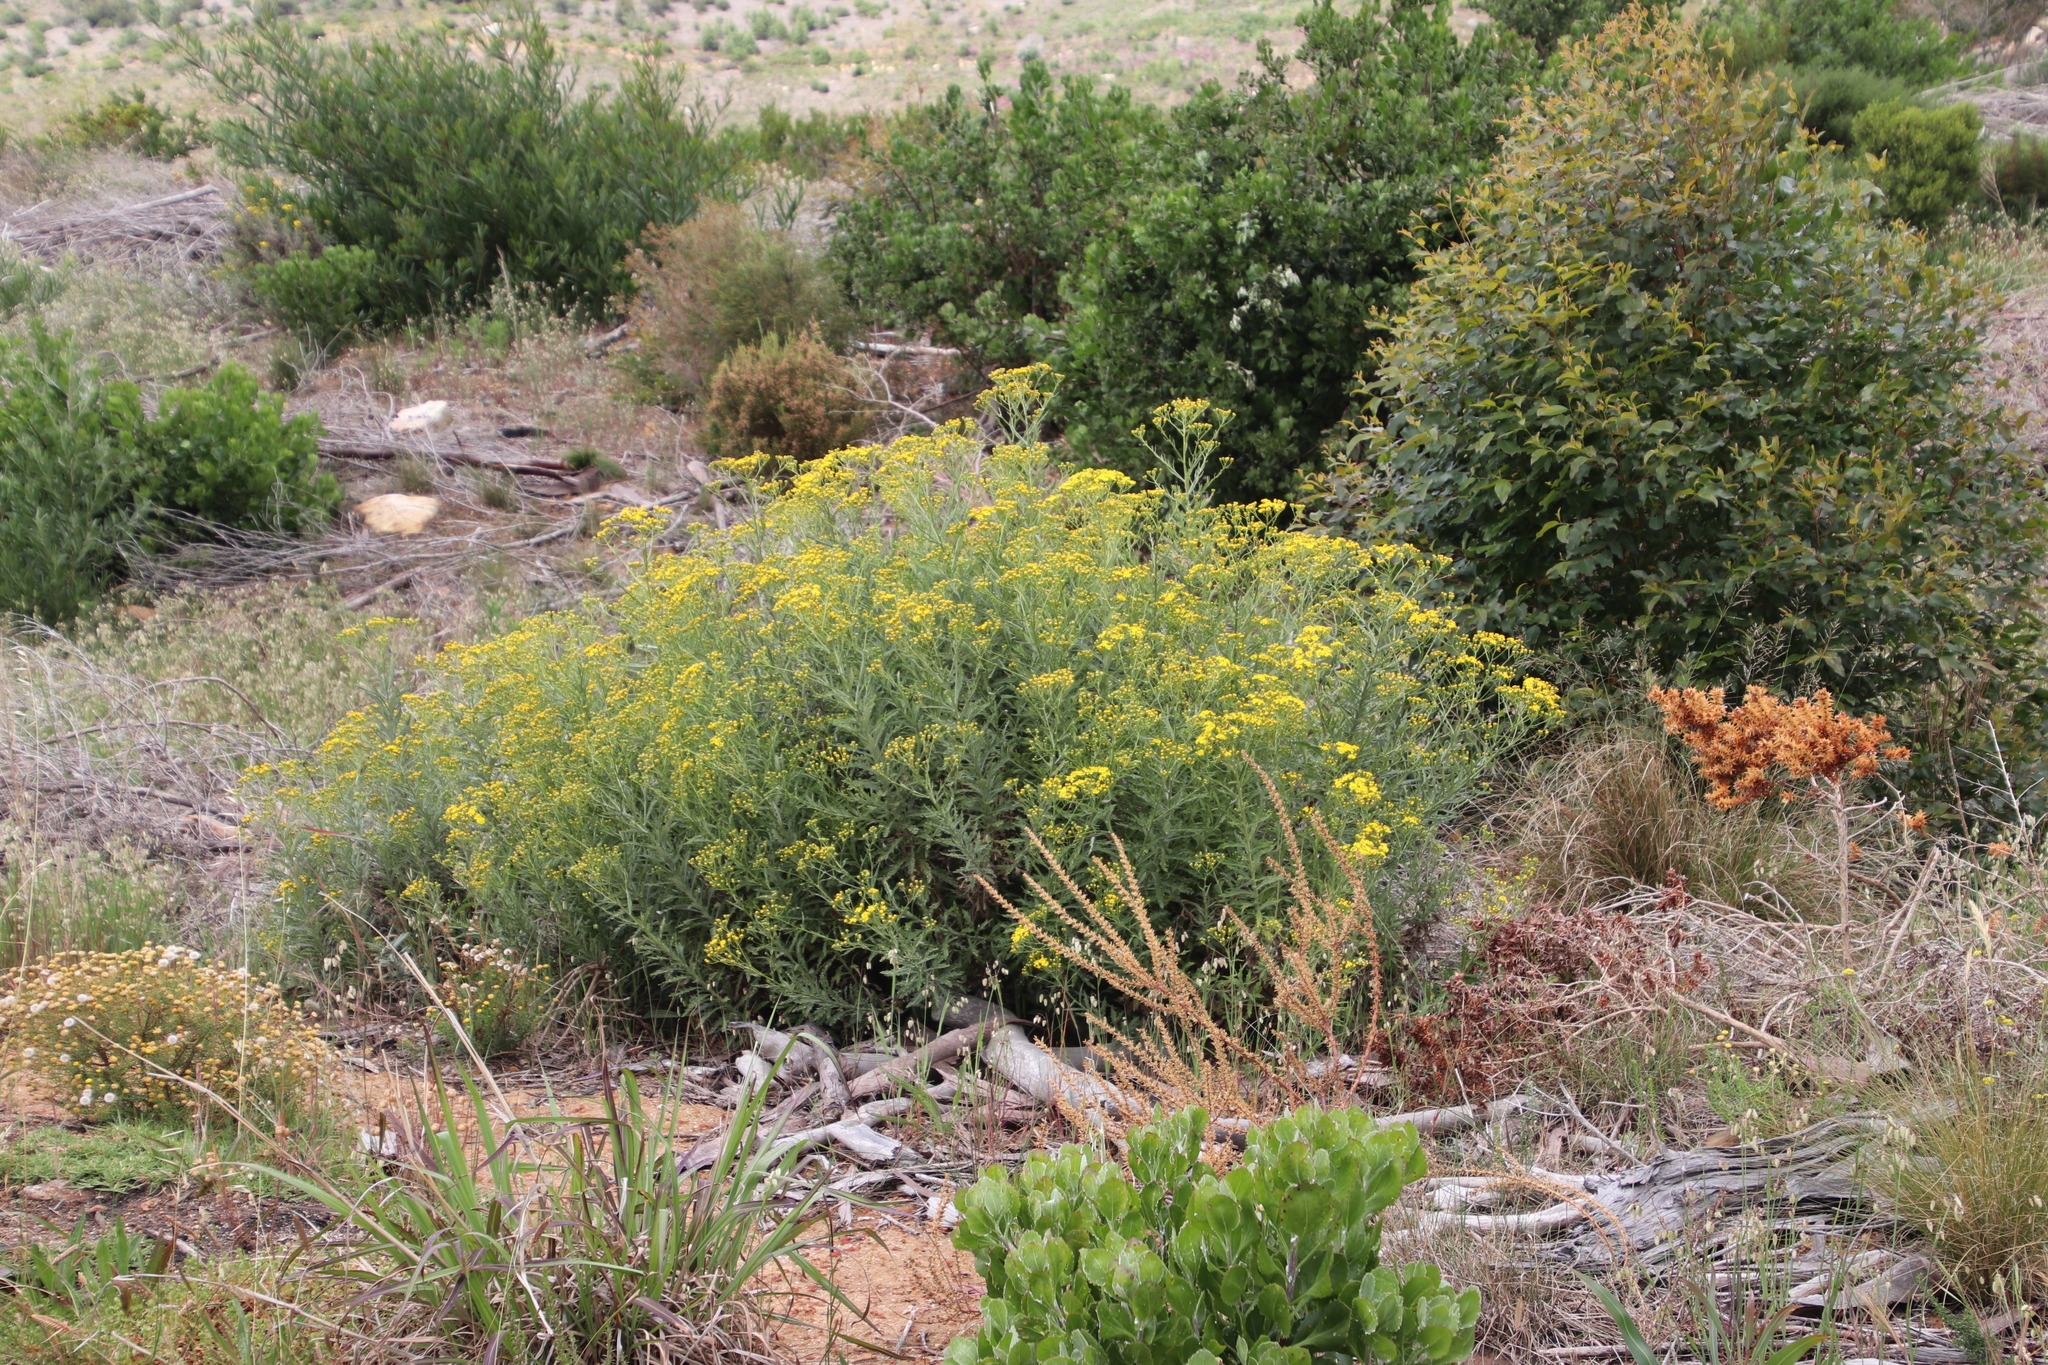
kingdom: Plantae
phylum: Tracheophyta
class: Magnoliopsida
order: Asterales
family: Asteraceae
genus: Senecio
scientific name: Senecio pterophorus
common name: Shoddy ragwort
